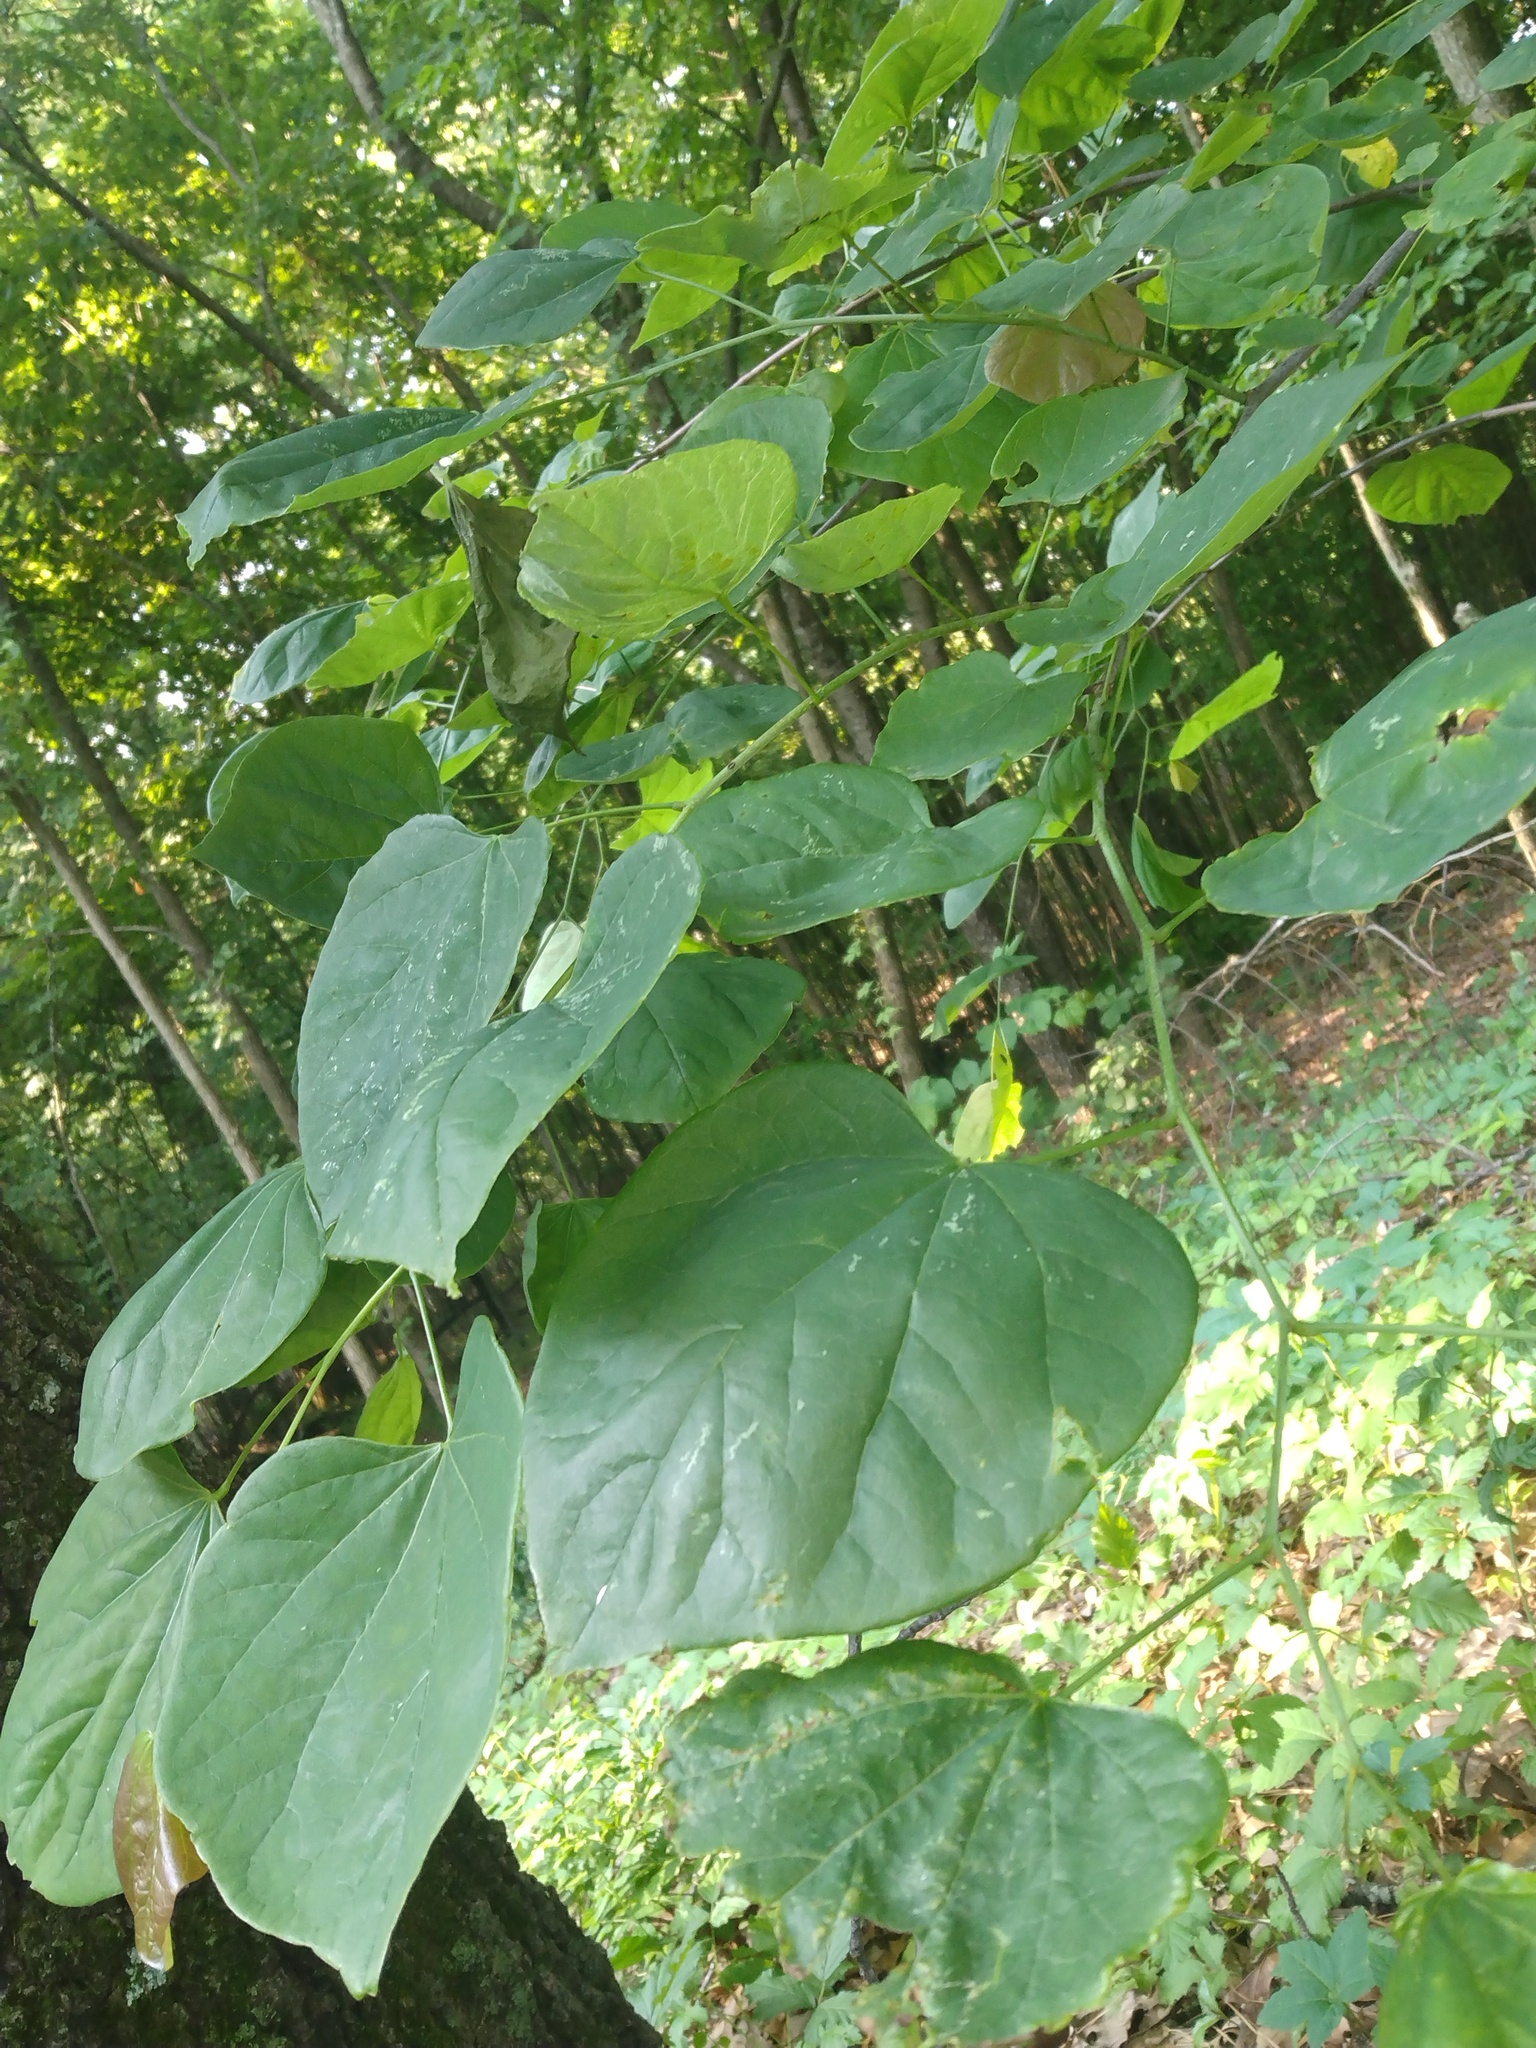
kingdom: Plantae
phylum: Tracheophyta
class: Magnoliopsida
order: Fabales
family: Fabaceae
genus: Cercis
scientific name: Cercis canadensis
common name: Eastern redbud
